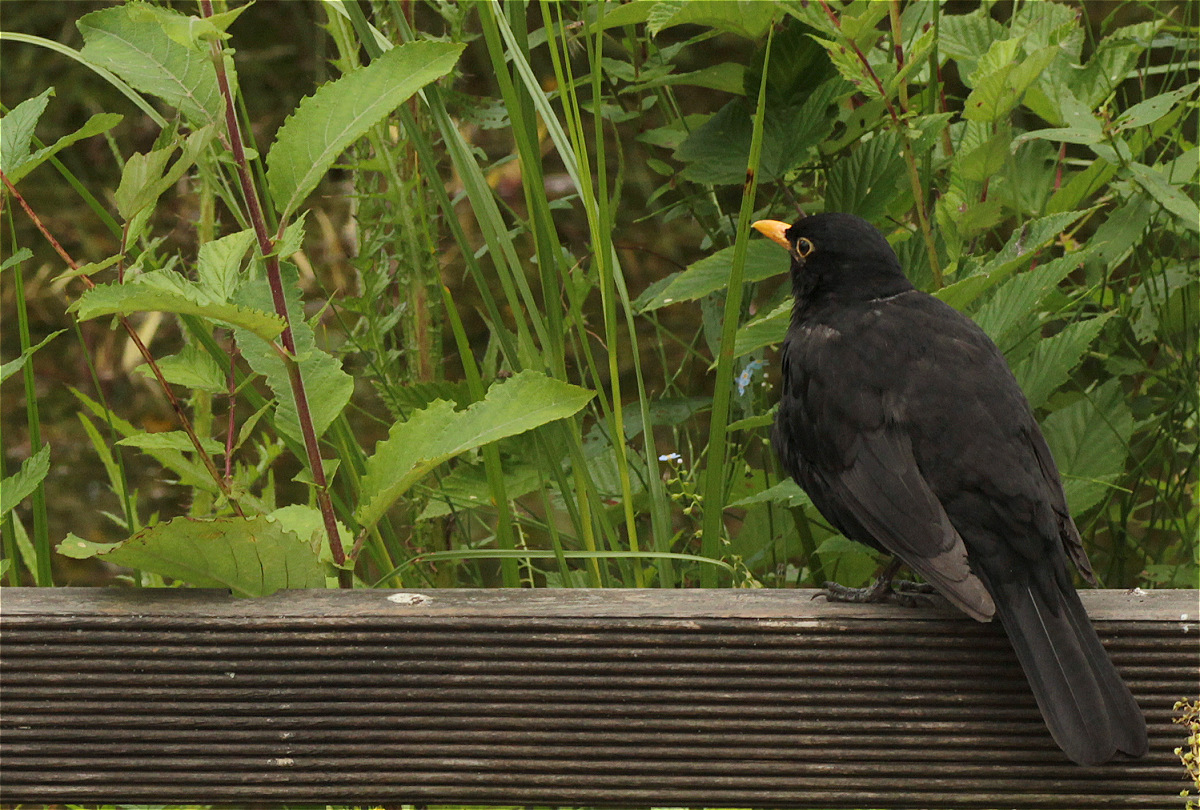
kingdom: Animalia
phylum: Chordata
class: Aves
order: Passeriformes
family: Turdidae
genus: Turdus
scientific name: Turdus merula
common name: Common blackbird
